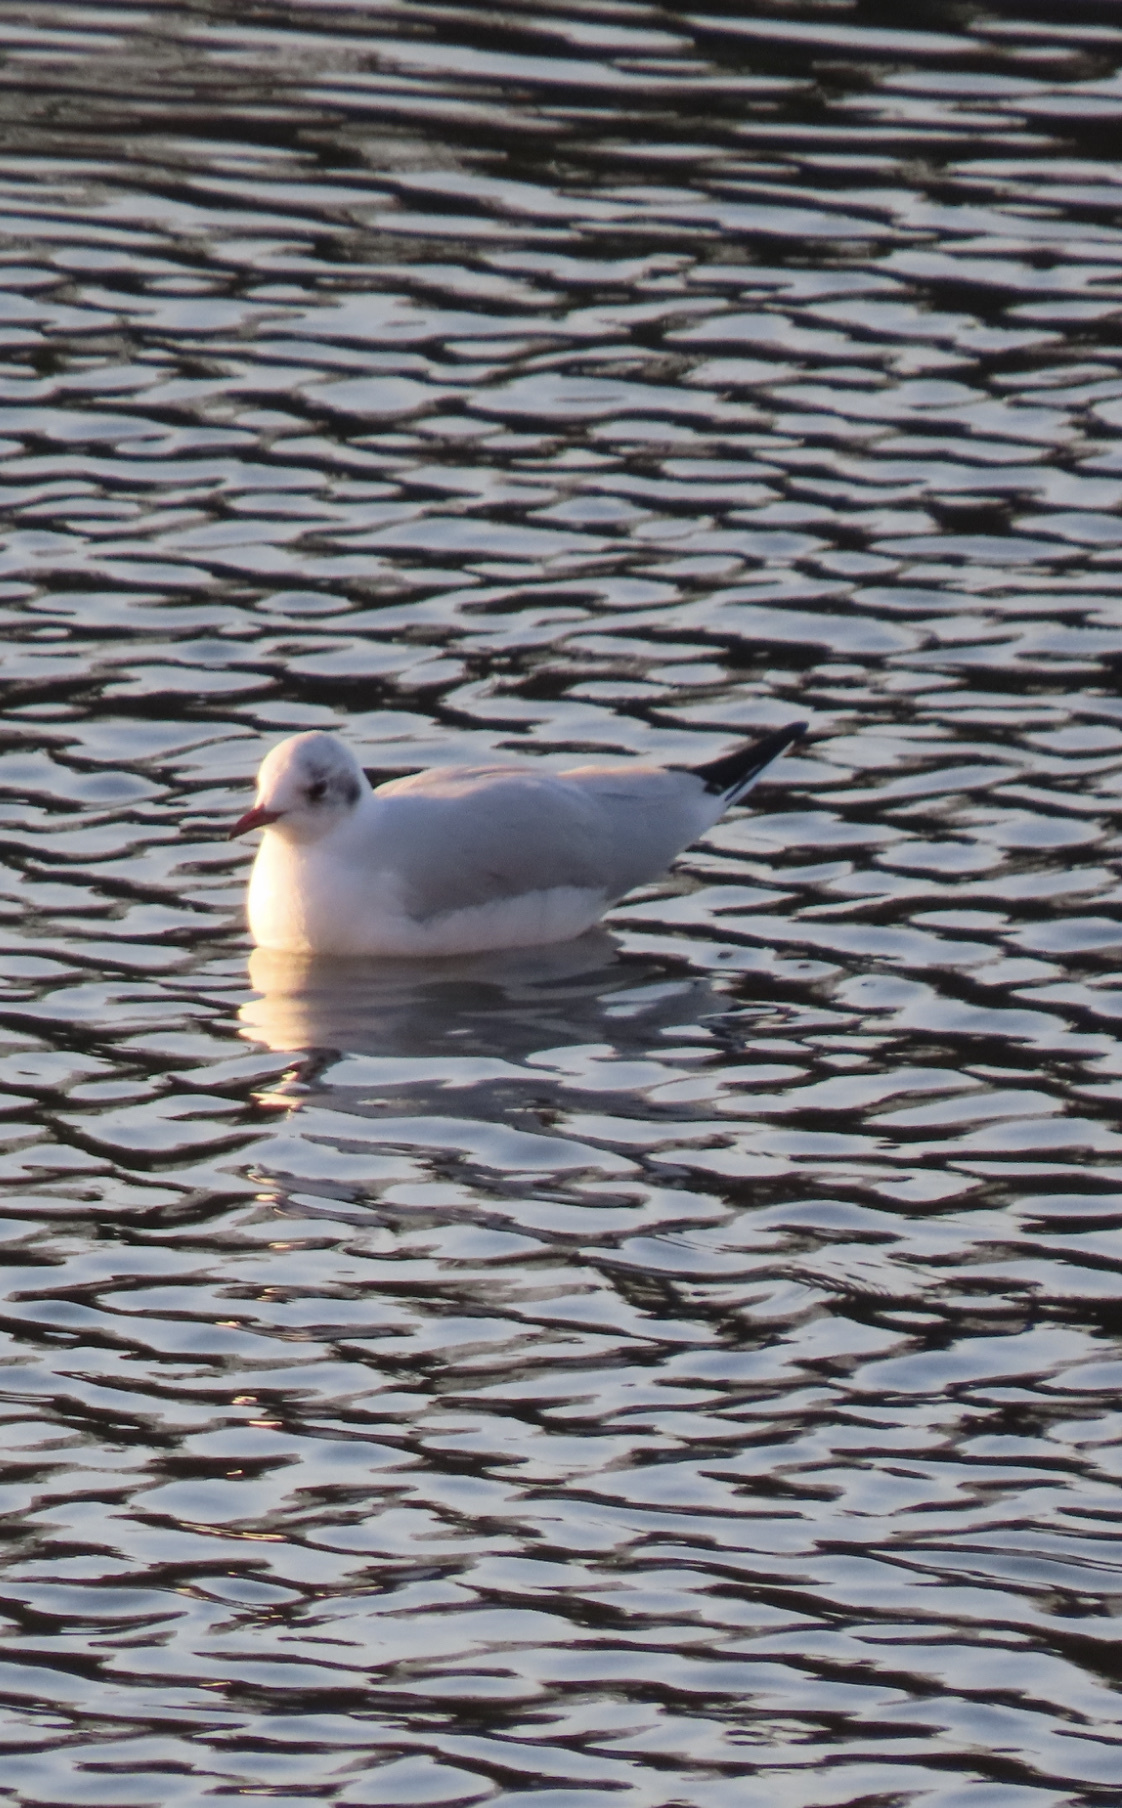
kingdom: Animalia
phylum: Chordata
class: Aves
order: Charadriiformes
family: Laridae
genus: Chroicocephalus
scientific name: Chroicocephalus ridibundus
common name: Black-headed gull
